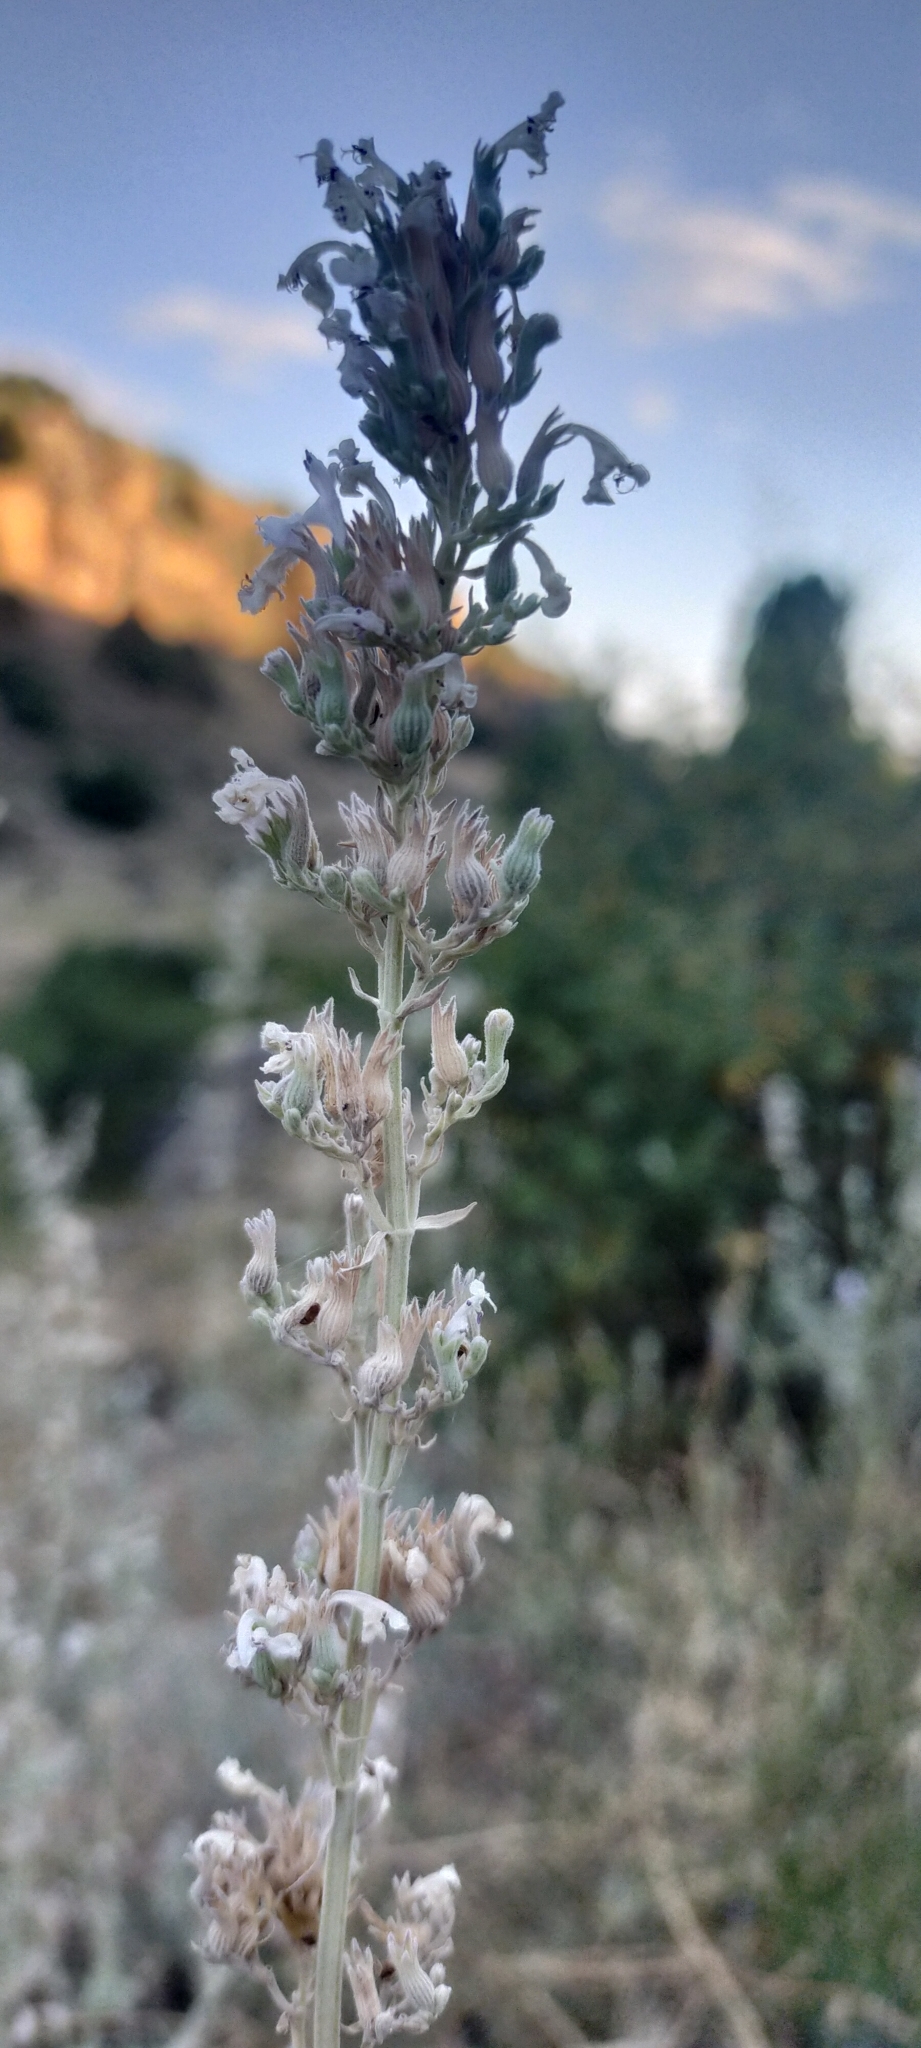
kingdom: Plantae
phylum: Tracheophyta
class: Magnoliopsida
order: Lamiales
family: Lamiaceae
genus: Nepeta
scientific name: Nepeta nepetella
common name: Lesser catmint
